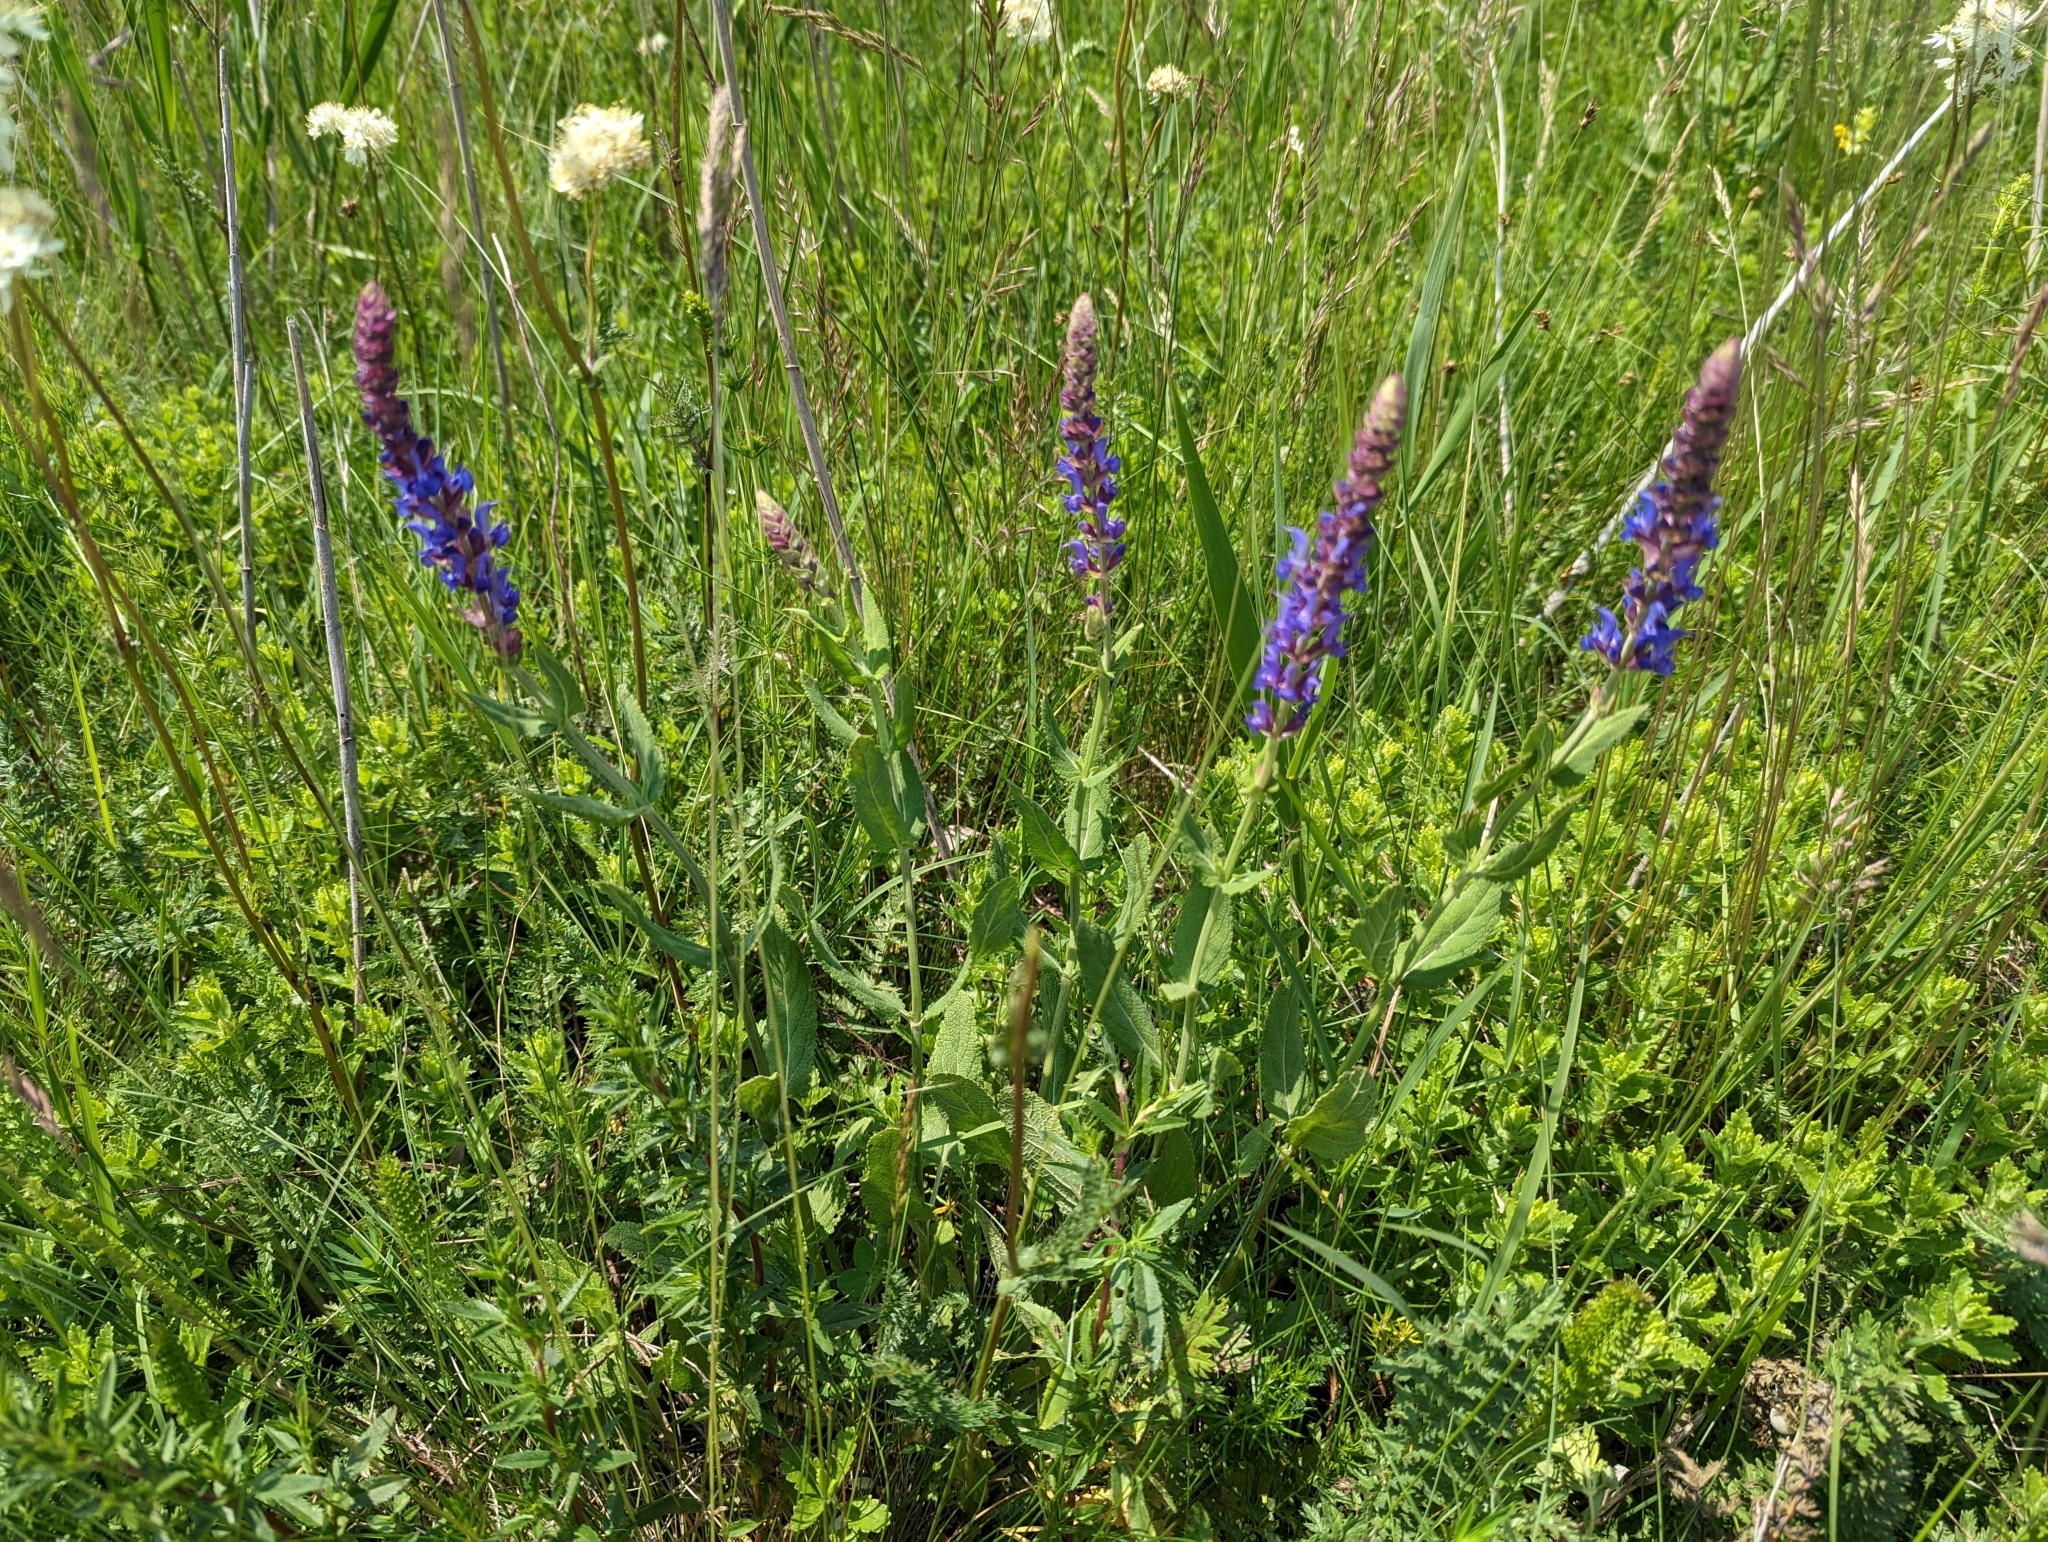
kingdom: Plantae
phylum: Tracheophyta
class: Magnoliopsida
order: Lamiales
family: Lamiaceae
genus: Salvia
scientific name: Salvia nemorosa
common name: Balkan clary
